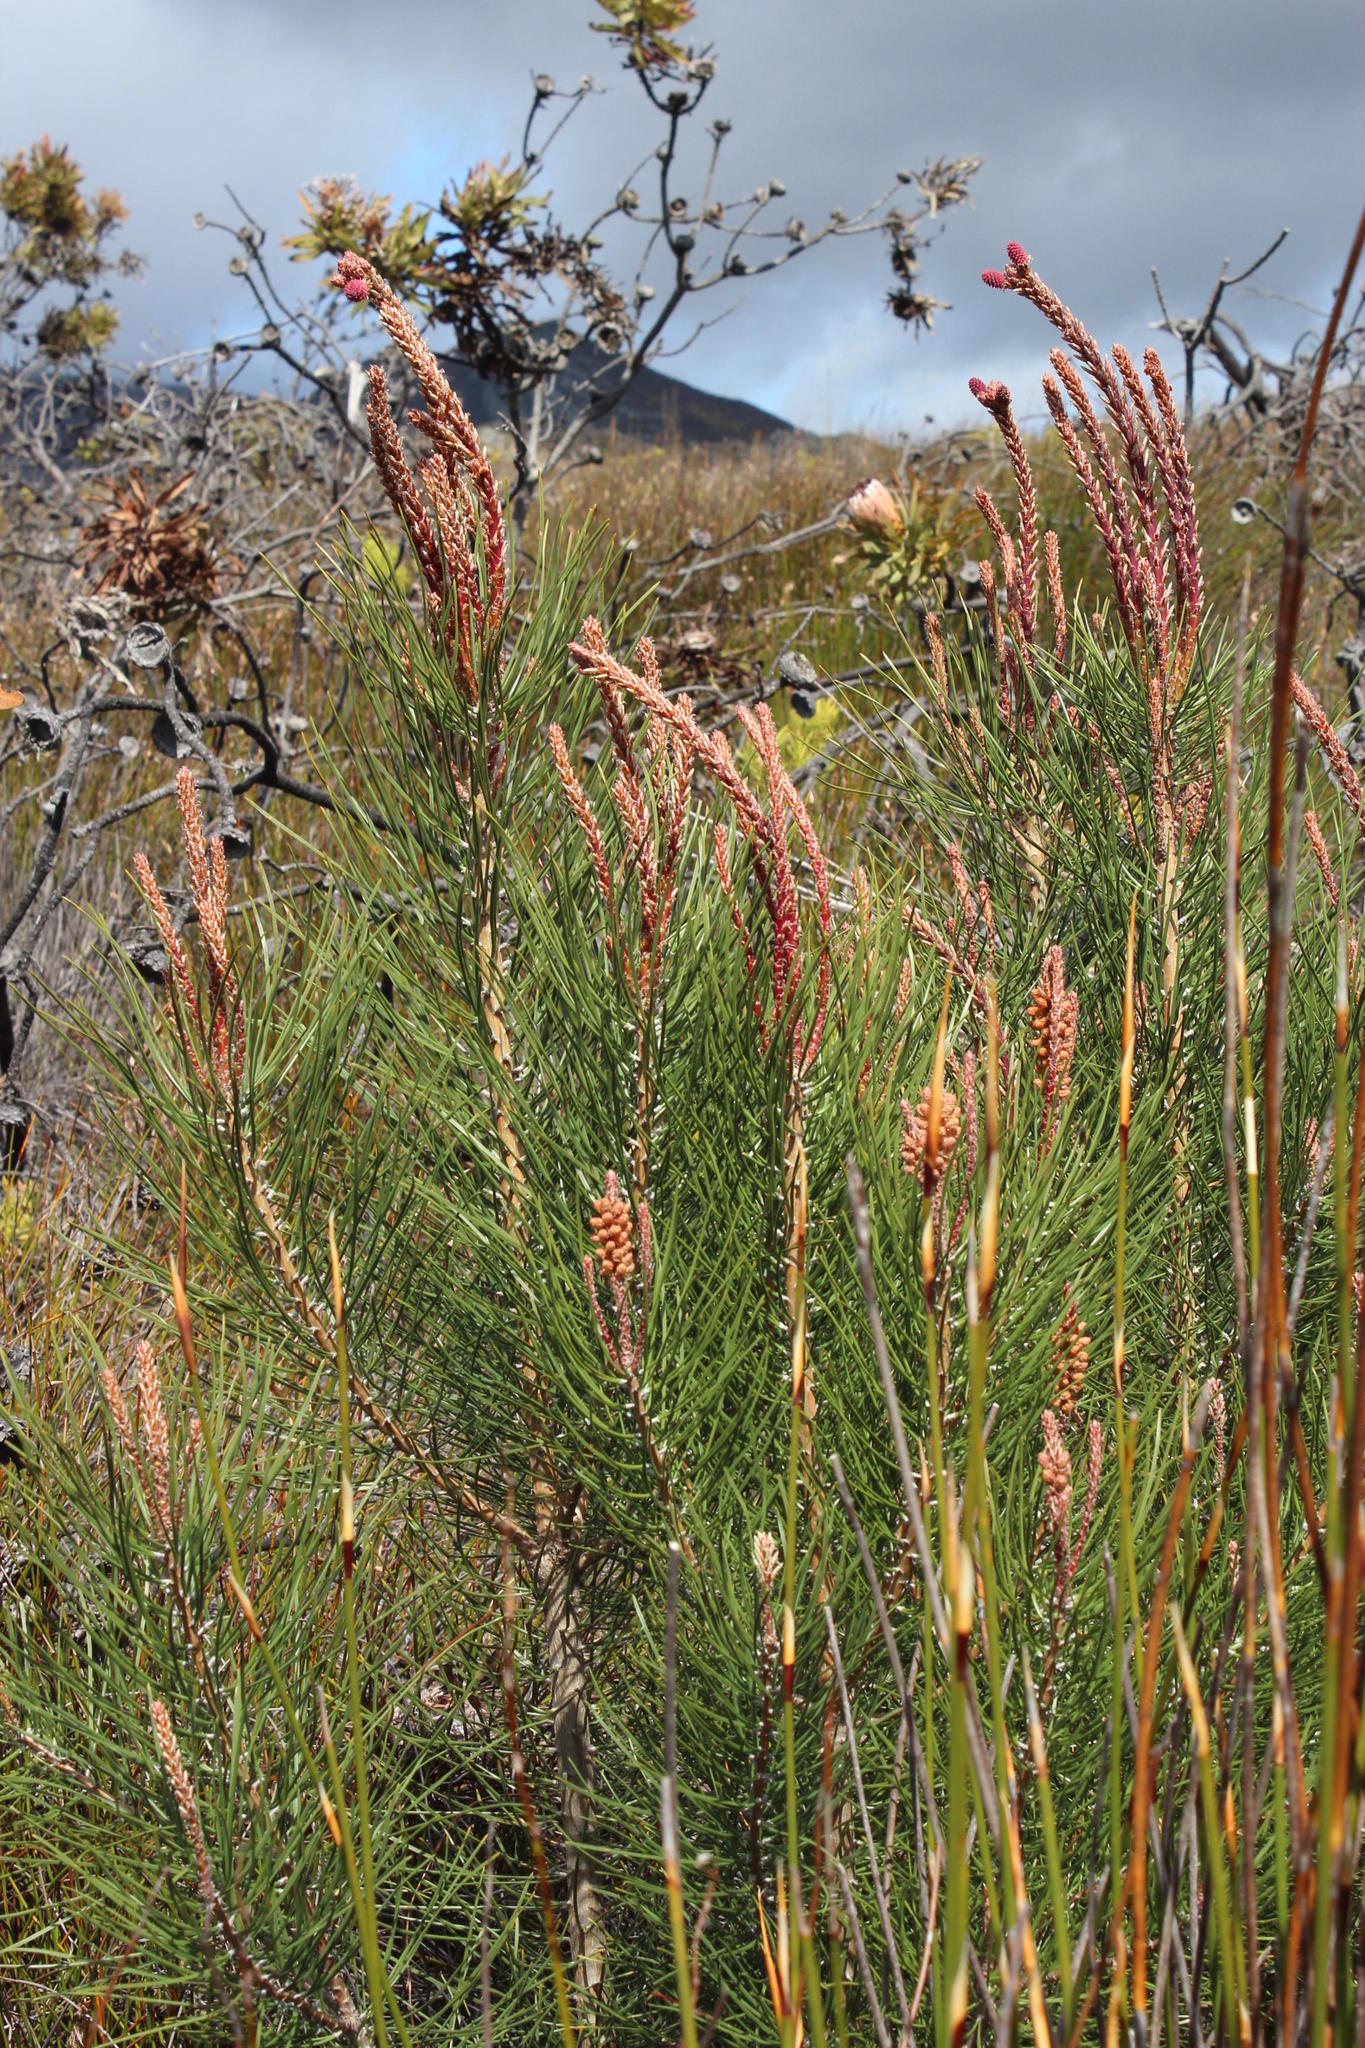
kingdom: Plantae
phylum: Tracheophyta
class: Pinopsida
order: Pinales
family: Pinaceae
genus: Pinus
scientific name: Pinus pinaster
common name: Maritime pine
